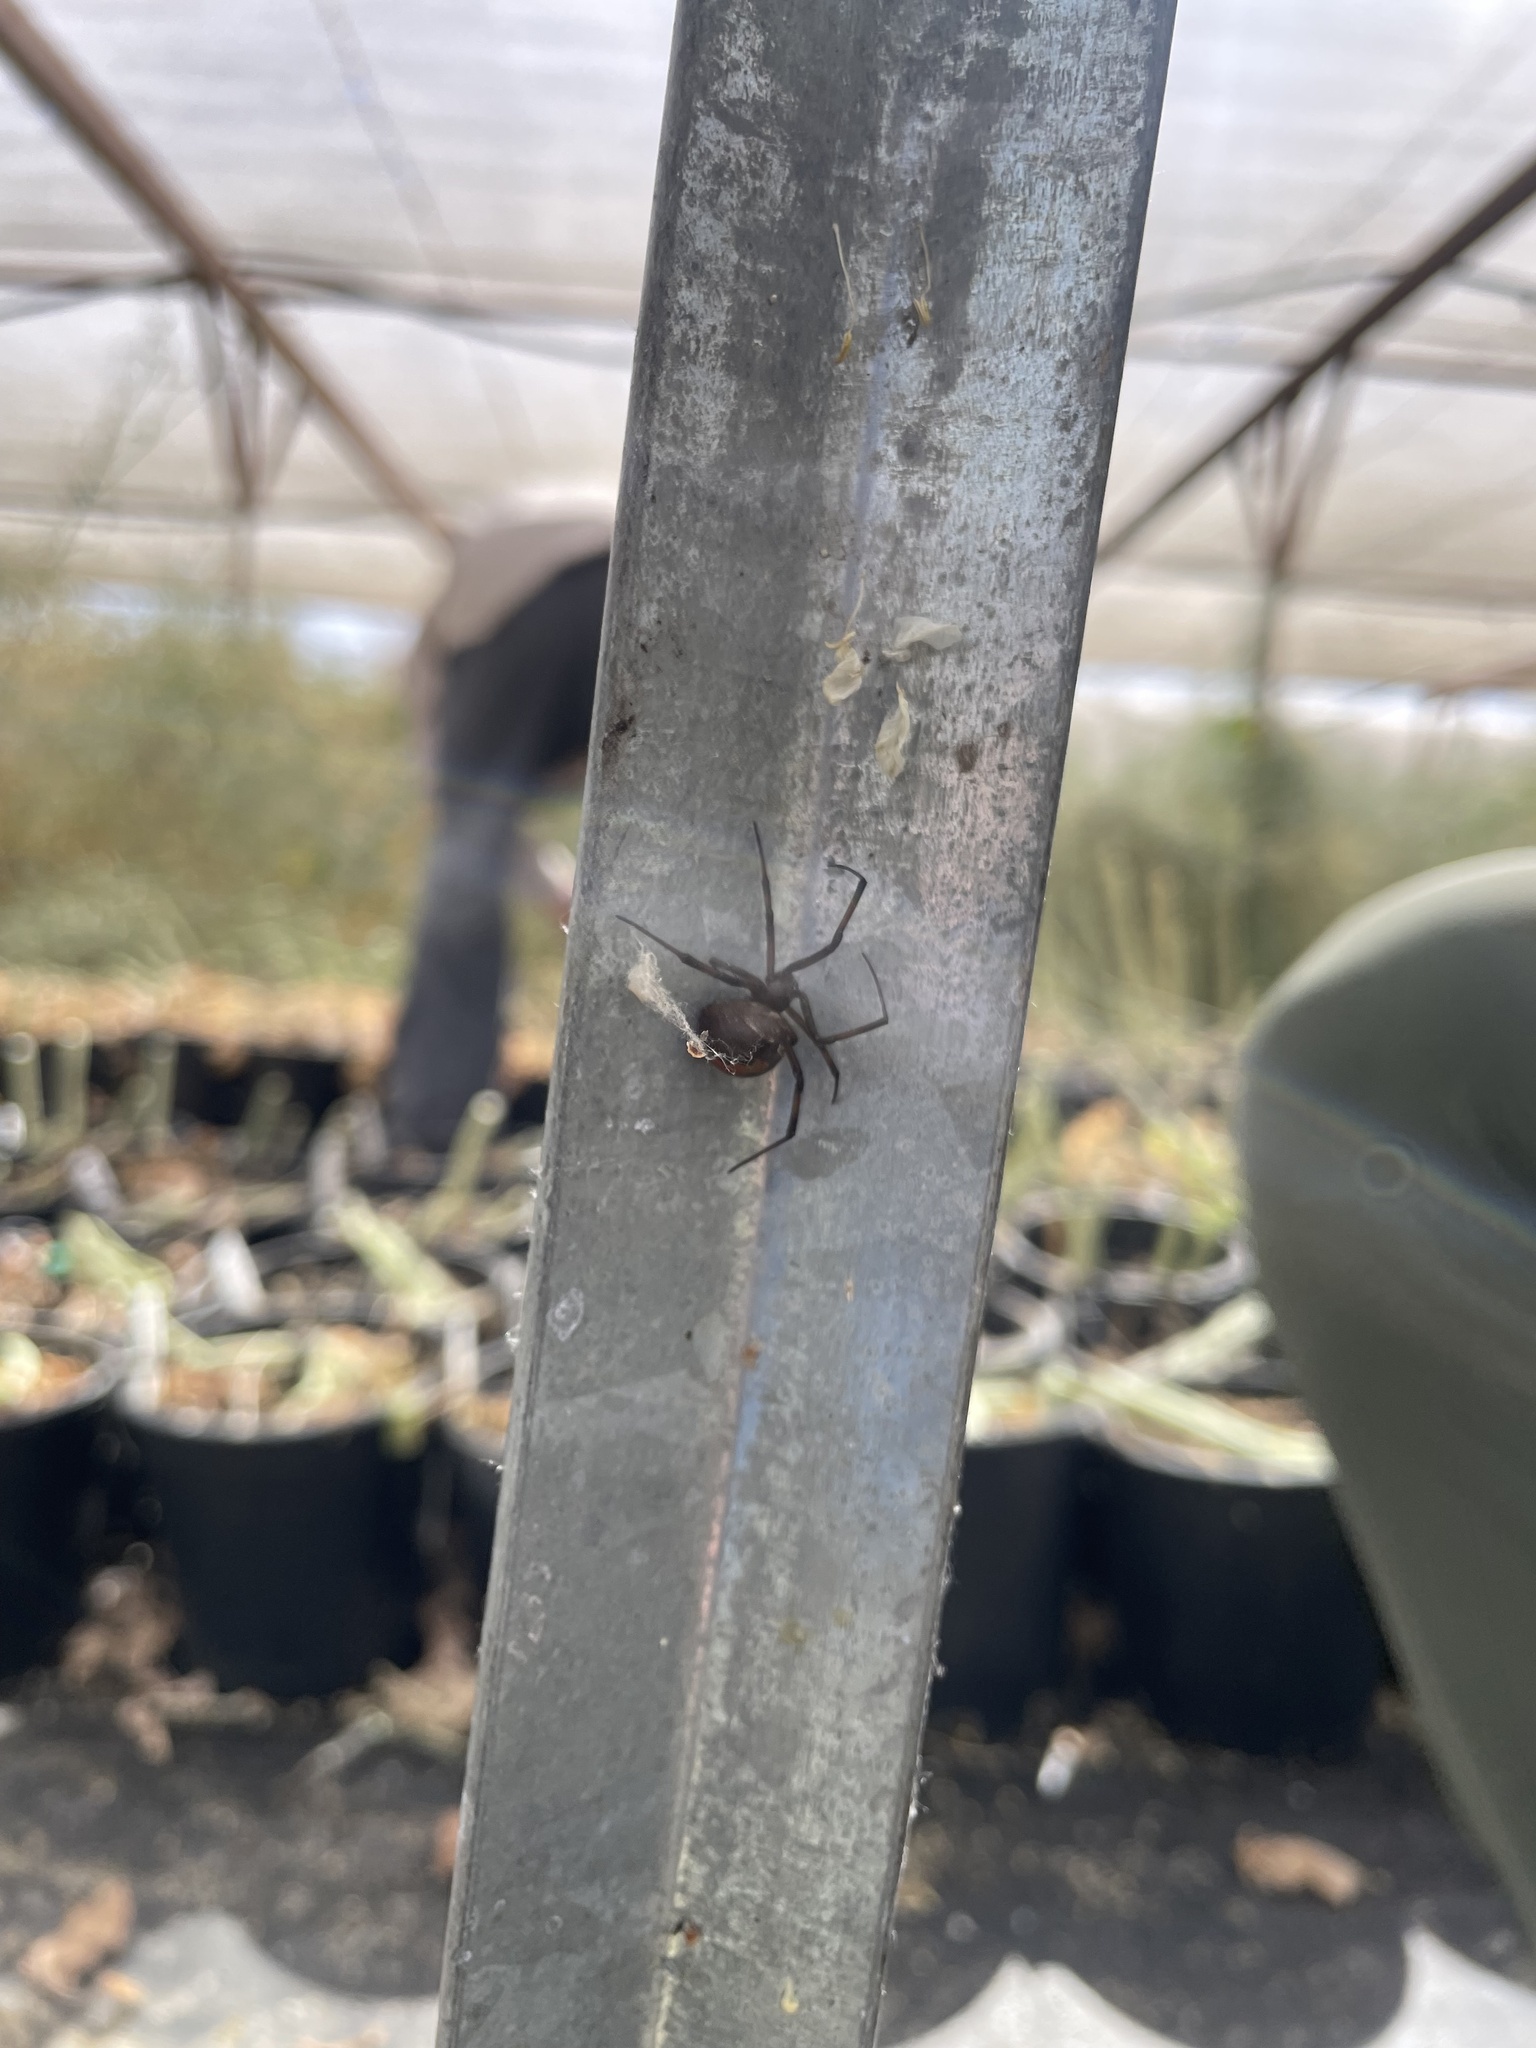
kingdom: Animalia
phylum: Arthropoda
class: Arachnida
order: Araneae
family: Theridiidae
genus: Latrodectus
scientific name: Latrodectus hasselti
